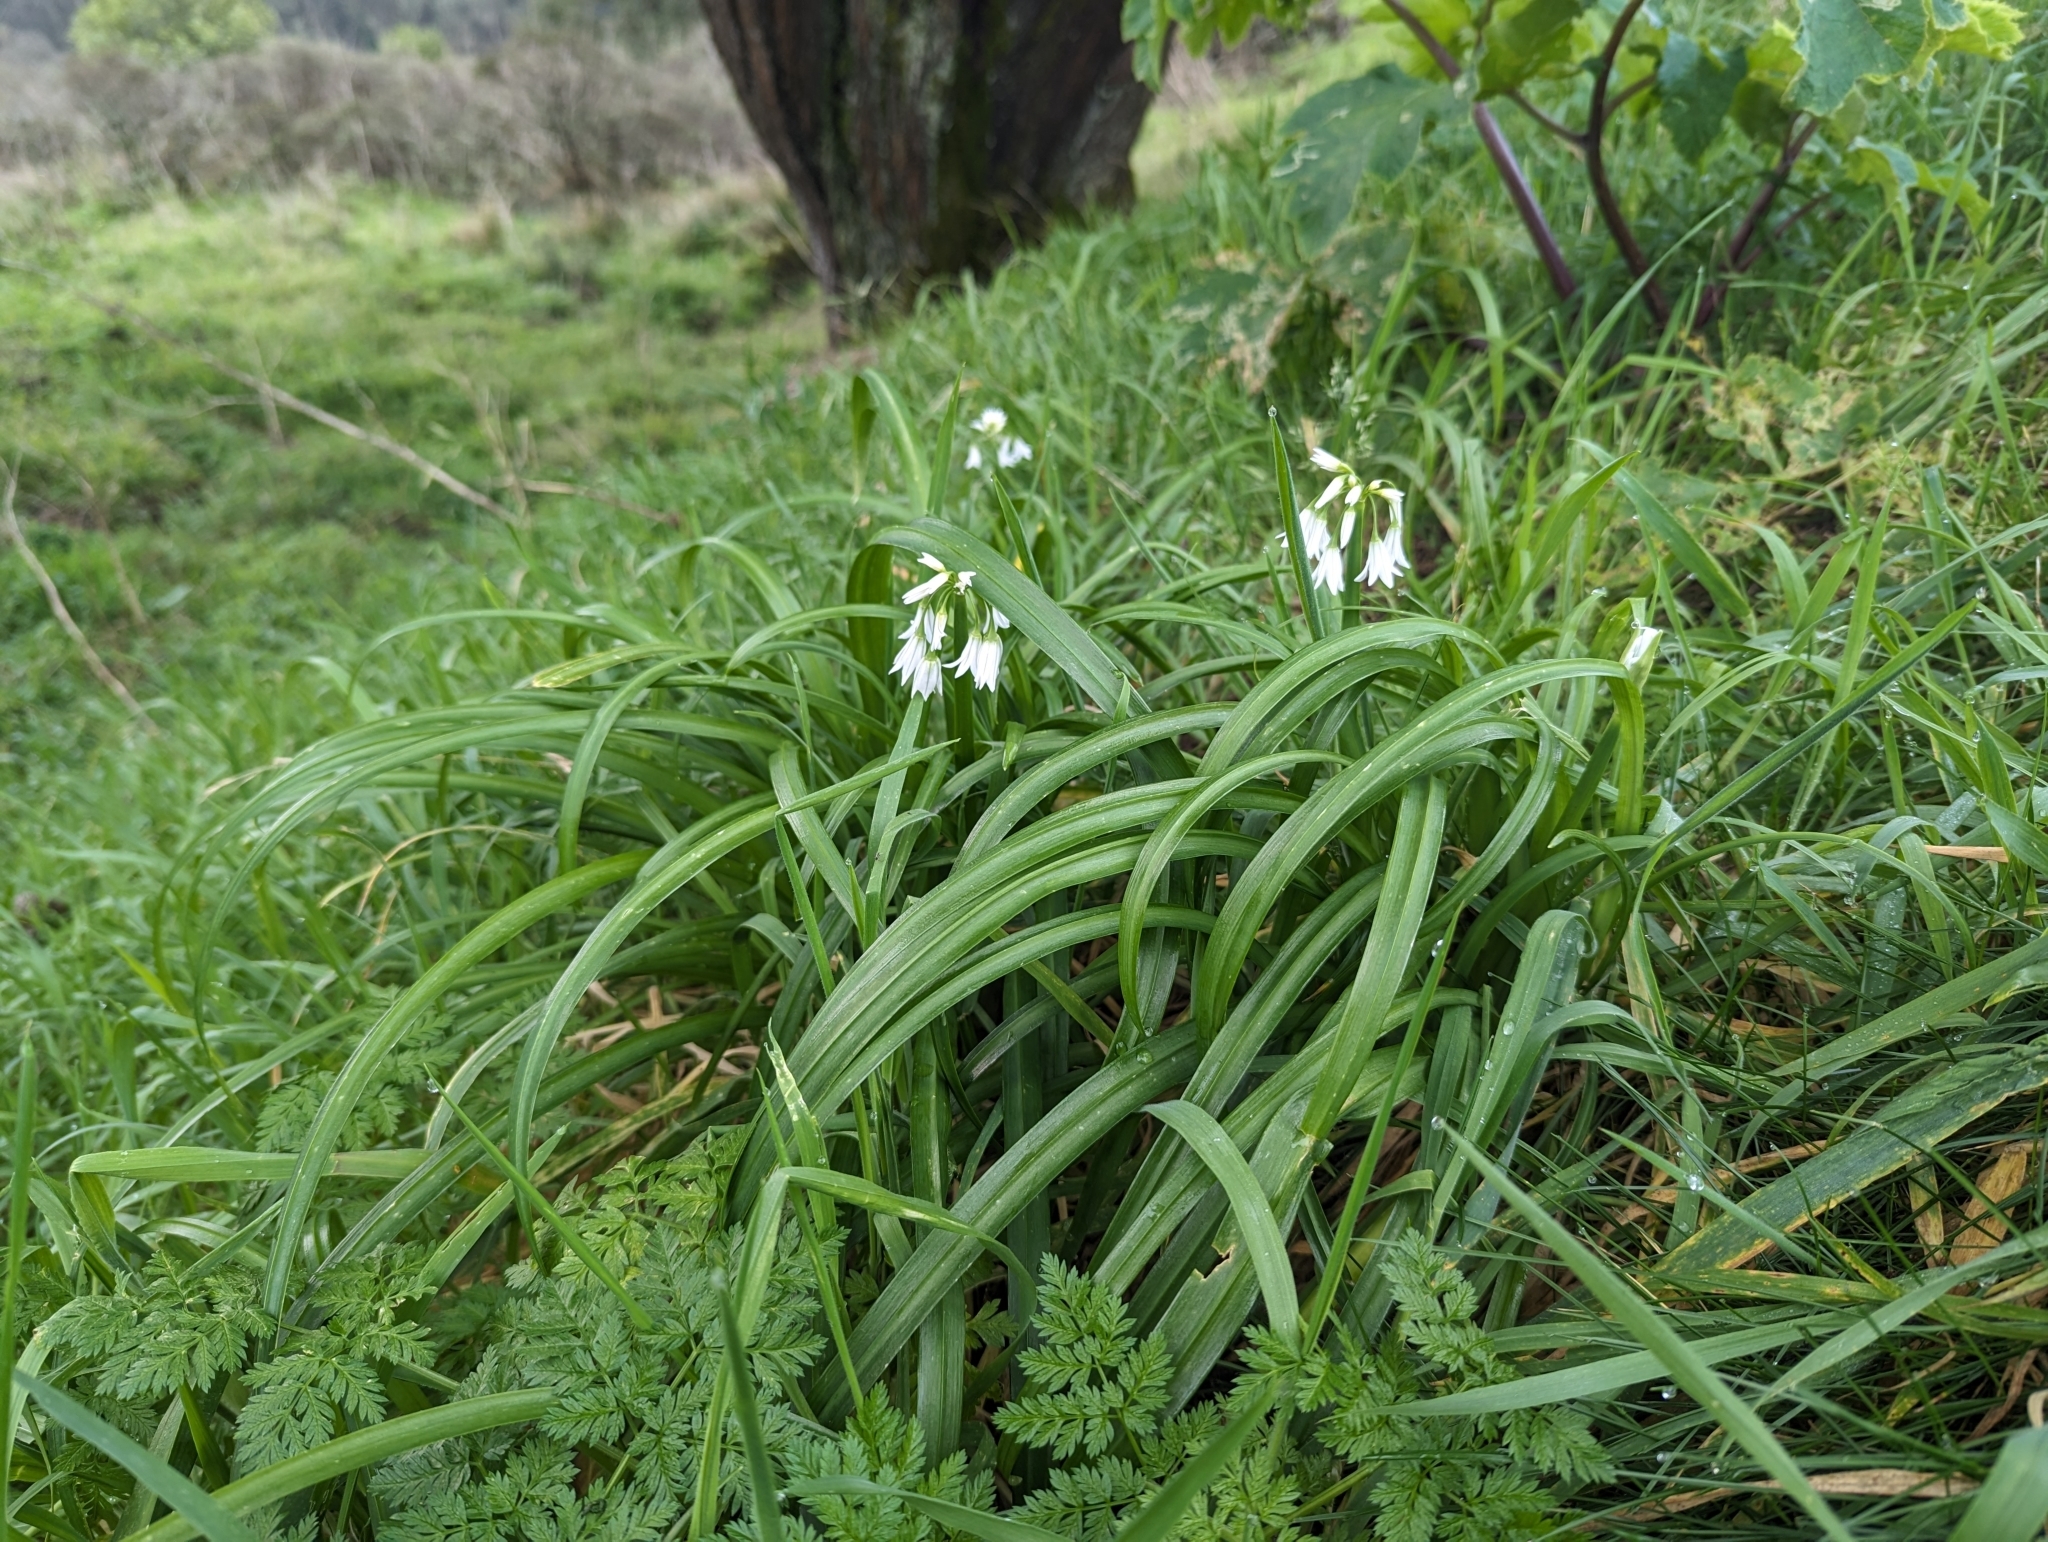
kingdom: Plantae
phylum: Tracheophyta
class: Liliopsida
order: Asparagales
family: Amaryllidaceae
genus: Allium
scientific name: Allium triquetrum
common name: Three-cornered garlic
